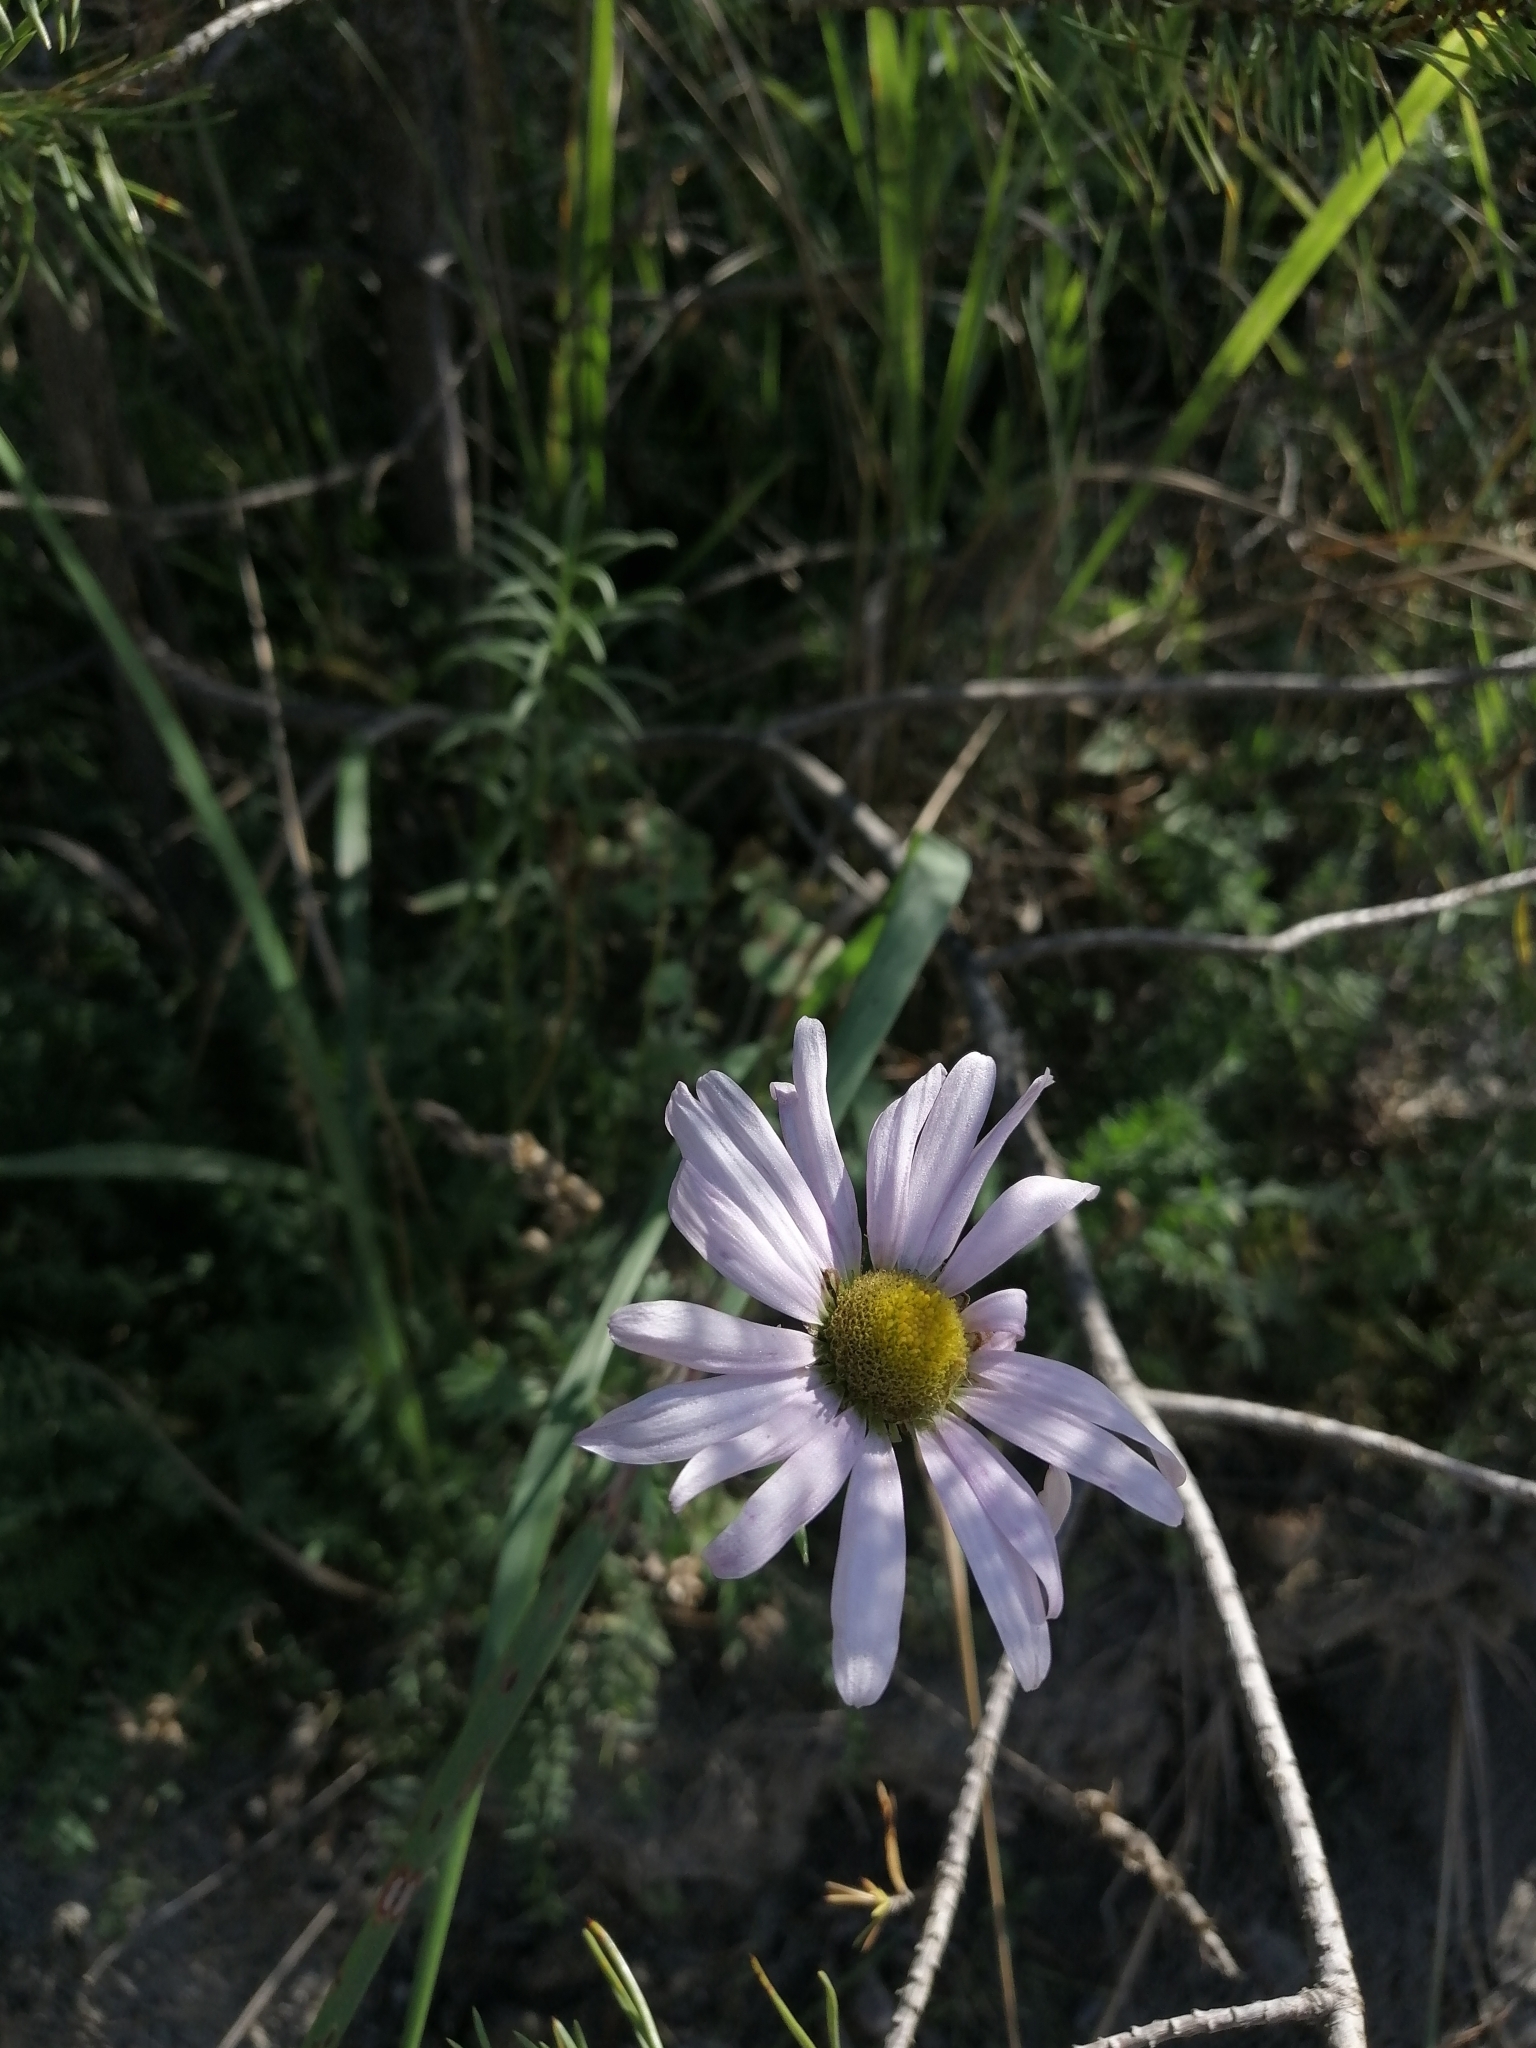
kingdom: Plantae
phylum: Tracheophyta
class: Magnoliopsida
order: Asterales
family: Asteraceae
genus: Chrysanthemum
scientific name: Chrysanthemum zawadzkii
